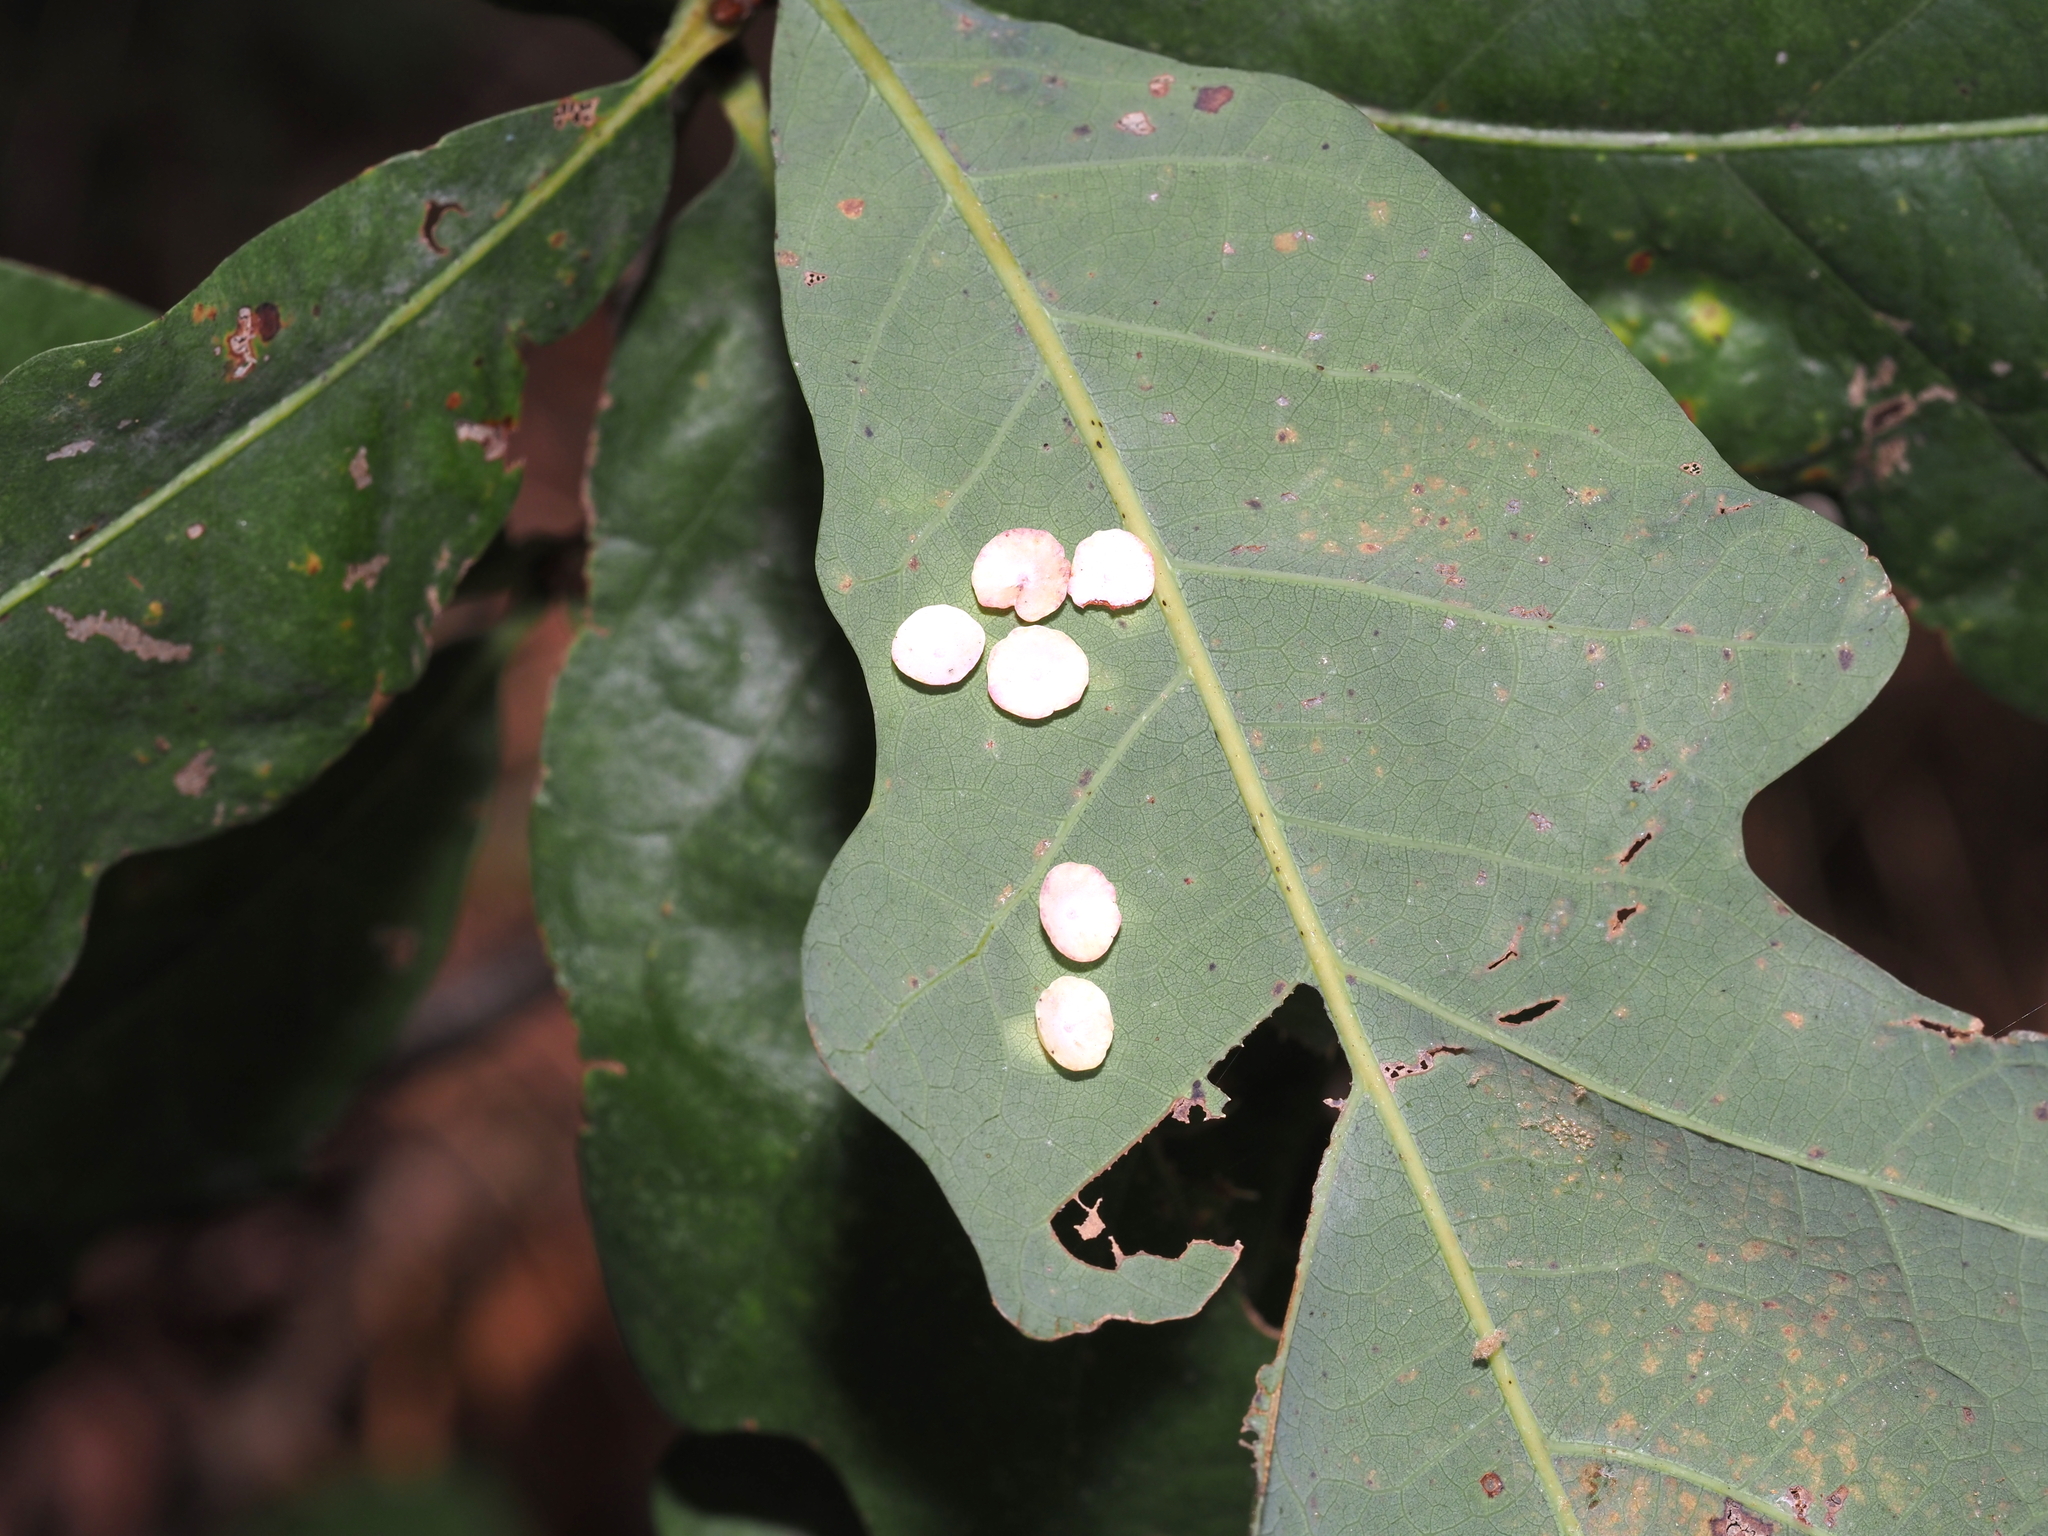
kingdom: Animalia
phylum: Arthropoda
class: Insecta
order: Hymenoptera
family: Cynipidae
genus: Phylloteras
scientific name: Phylloteras poculum
